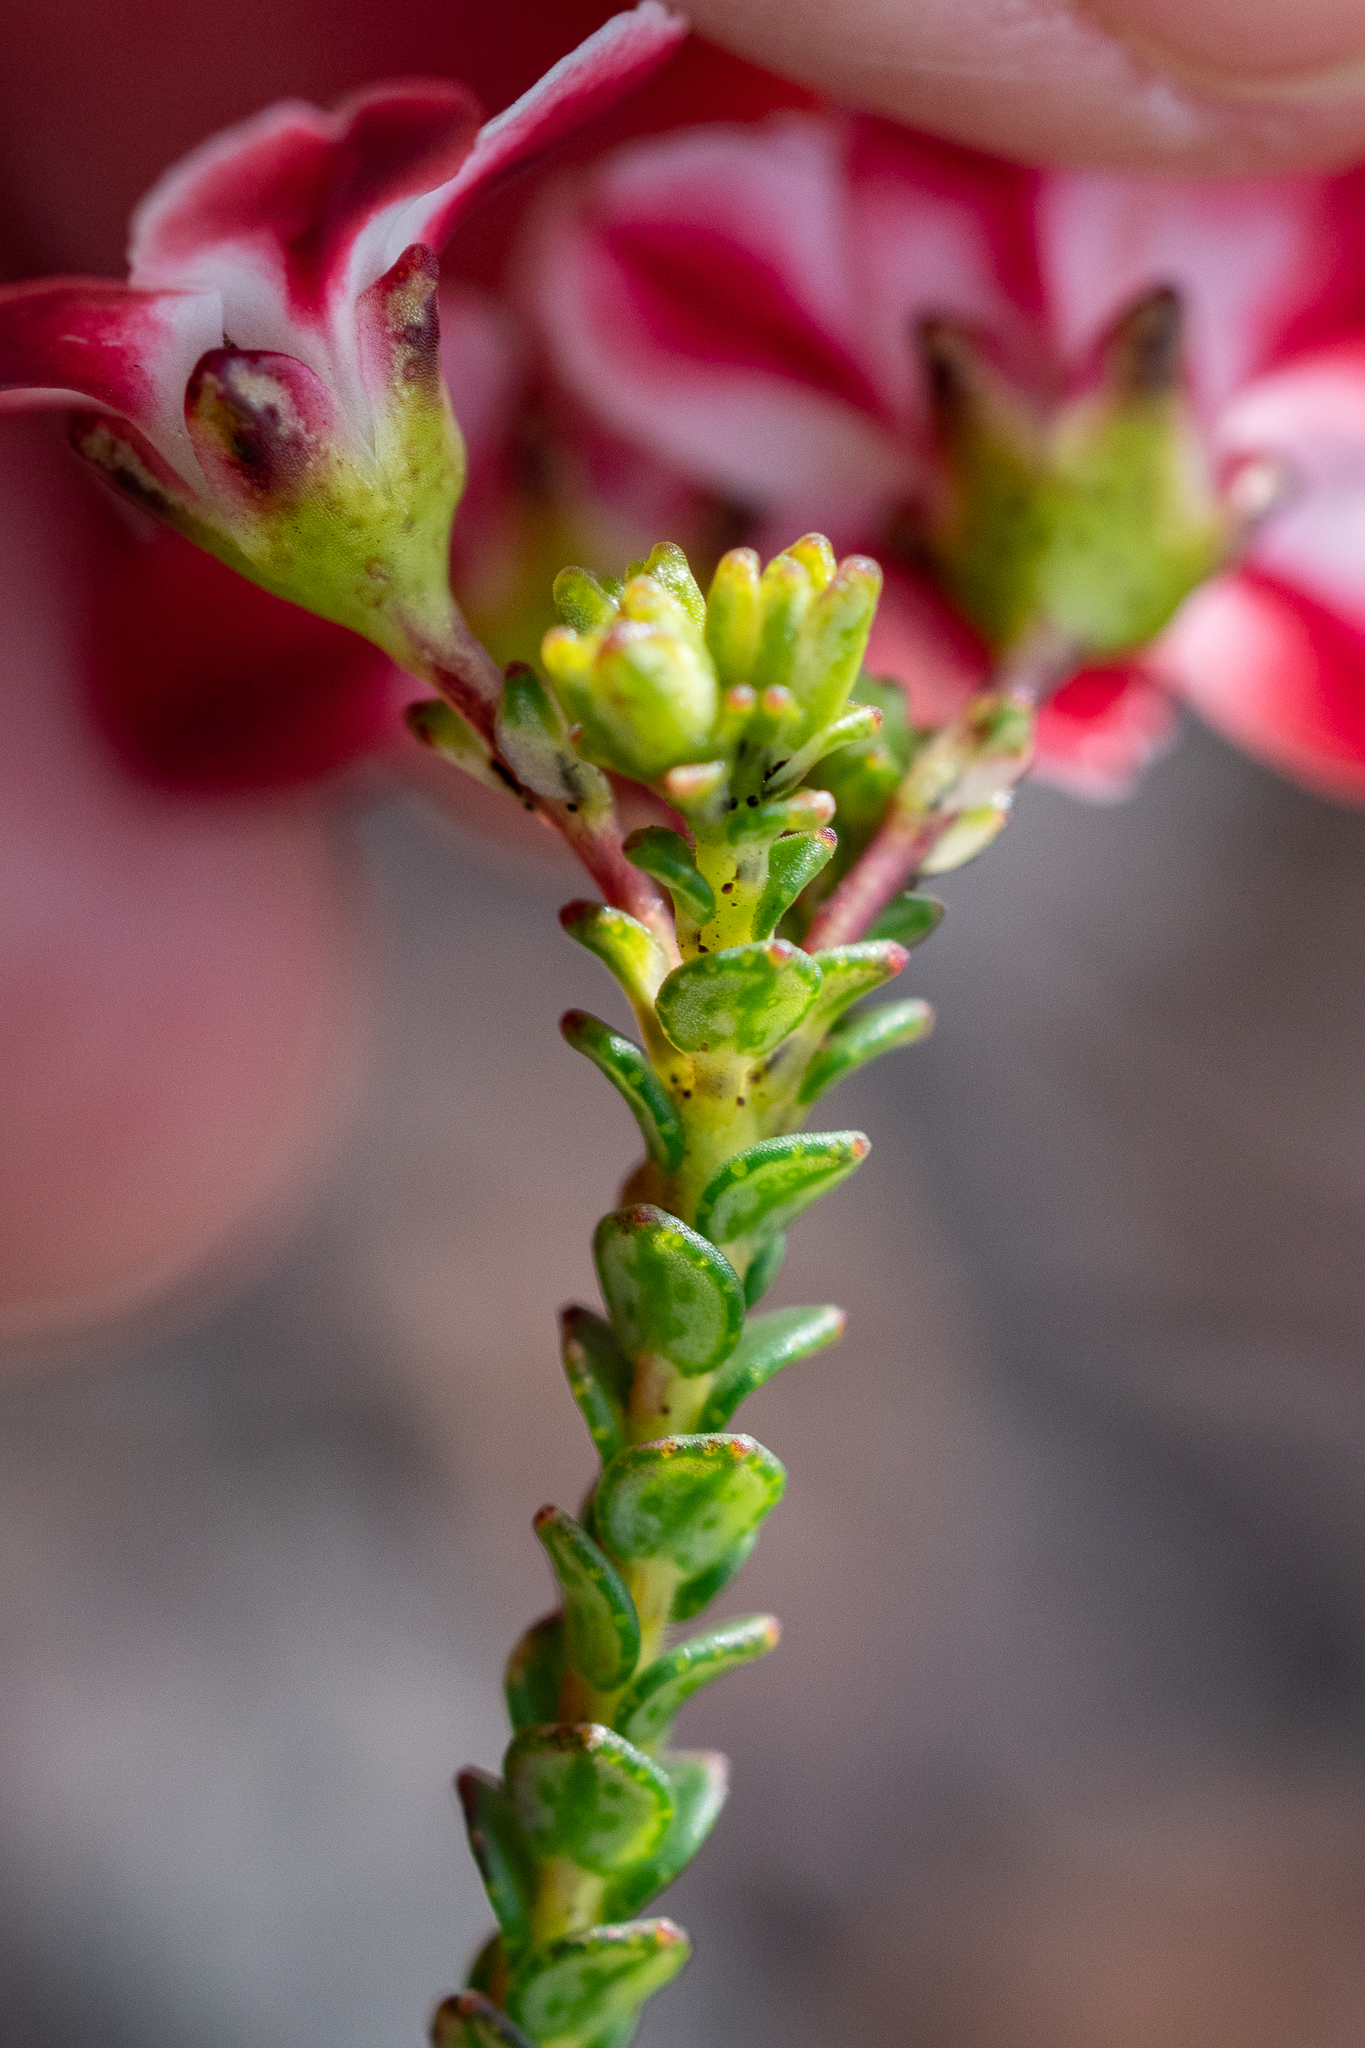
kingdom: Plantae
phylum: Tracheophyta
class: Magnoliopsida
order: Sapindales
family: Rutaceae
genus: Adenandra
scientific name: Adenandra brachyphylla
